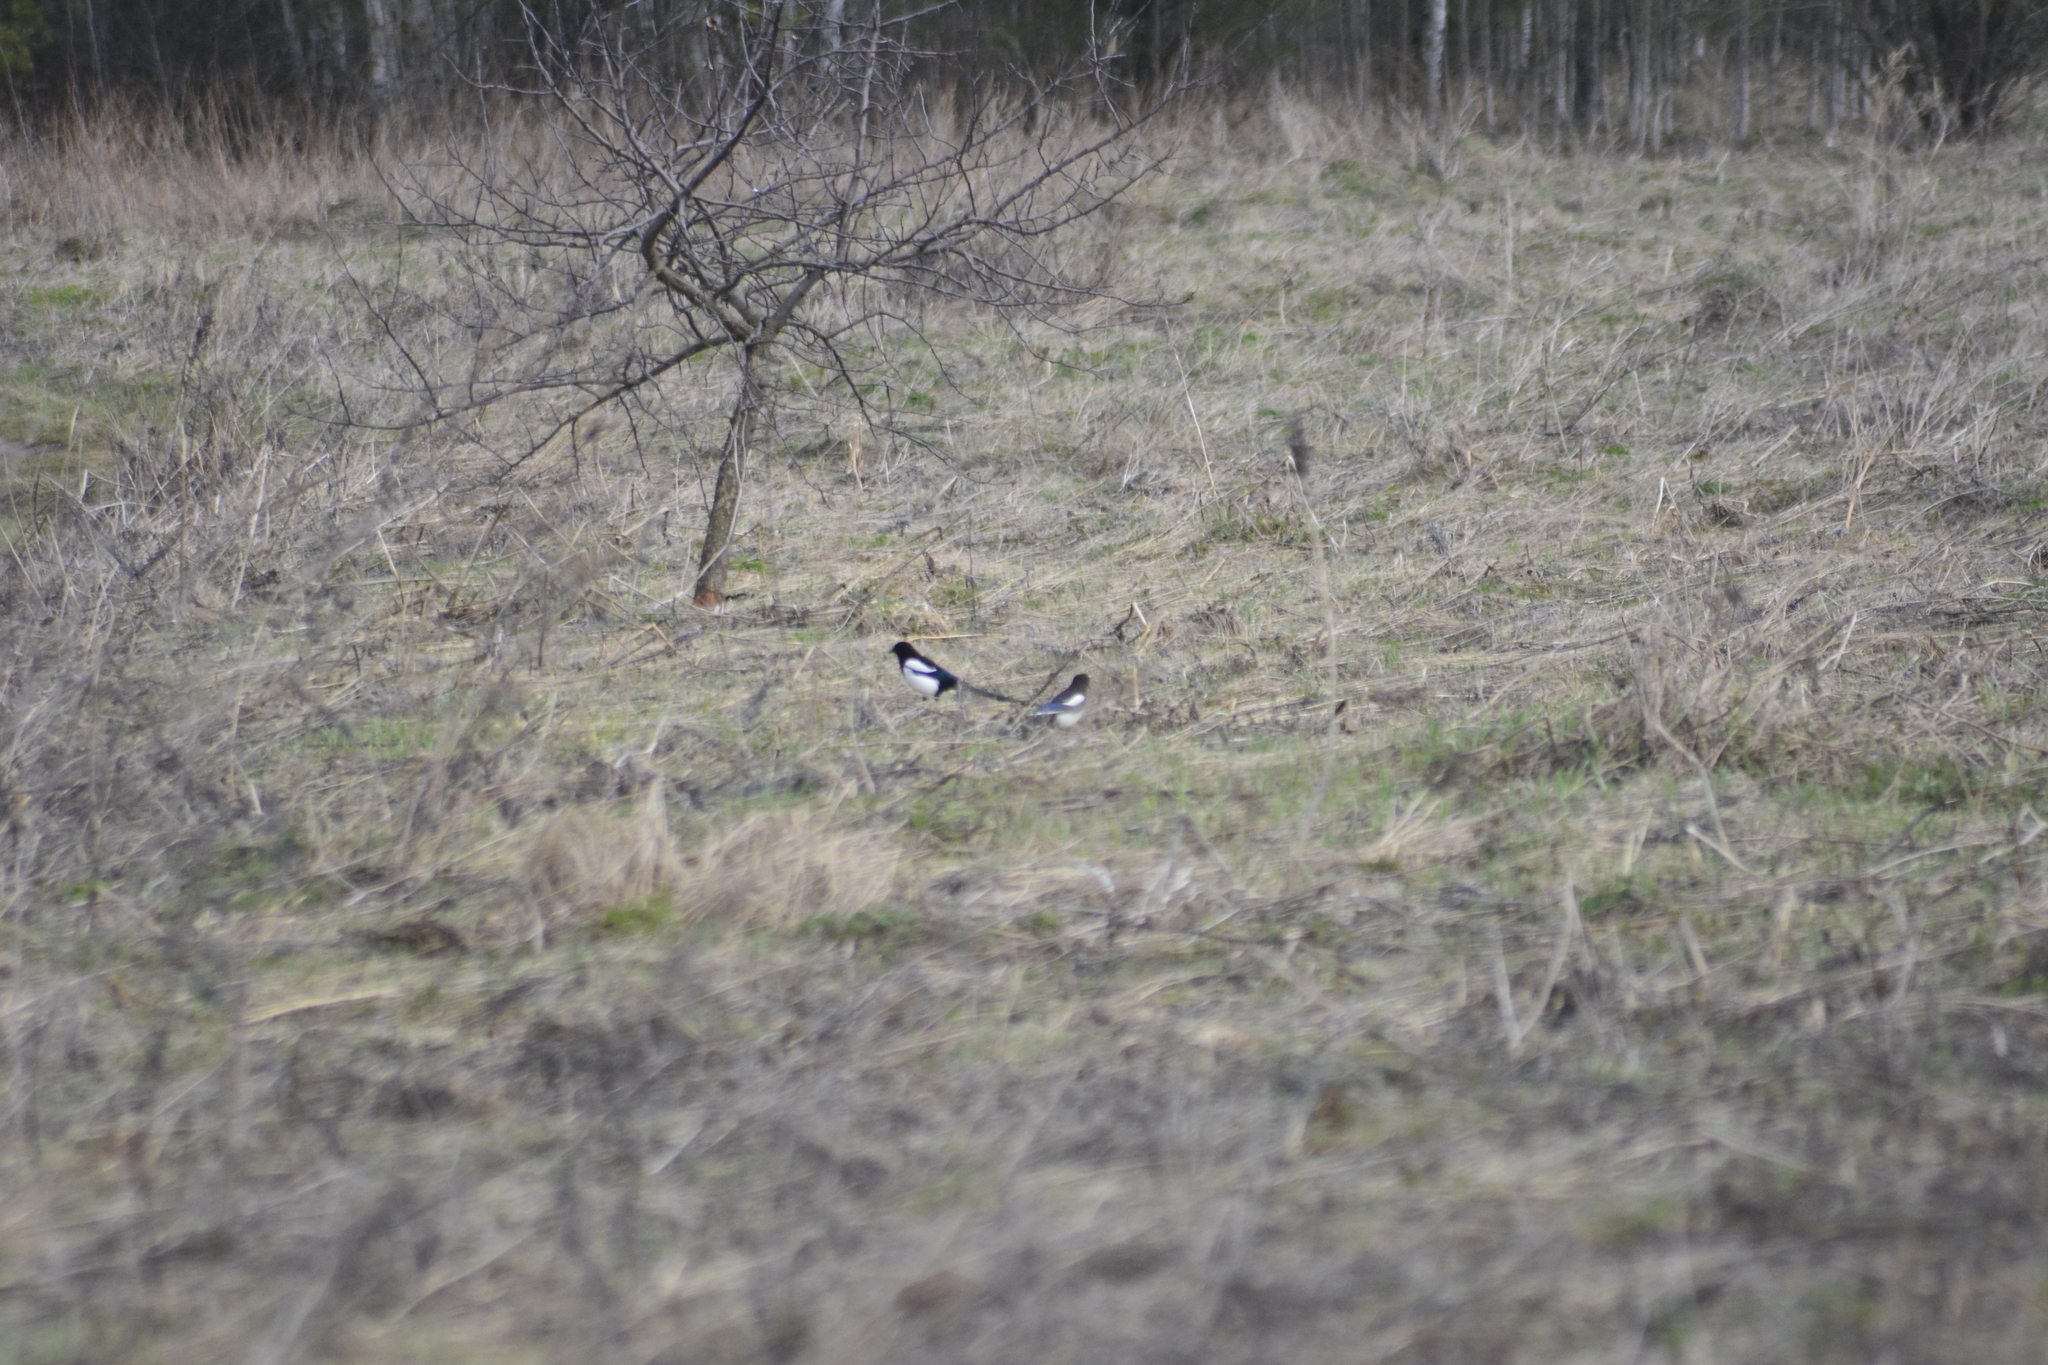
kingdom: Animalia
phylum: Chordata
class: Aves
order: Passeriformes
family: Corvidae
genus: Pica
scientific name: Pica pica
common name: Eurasian magpie
